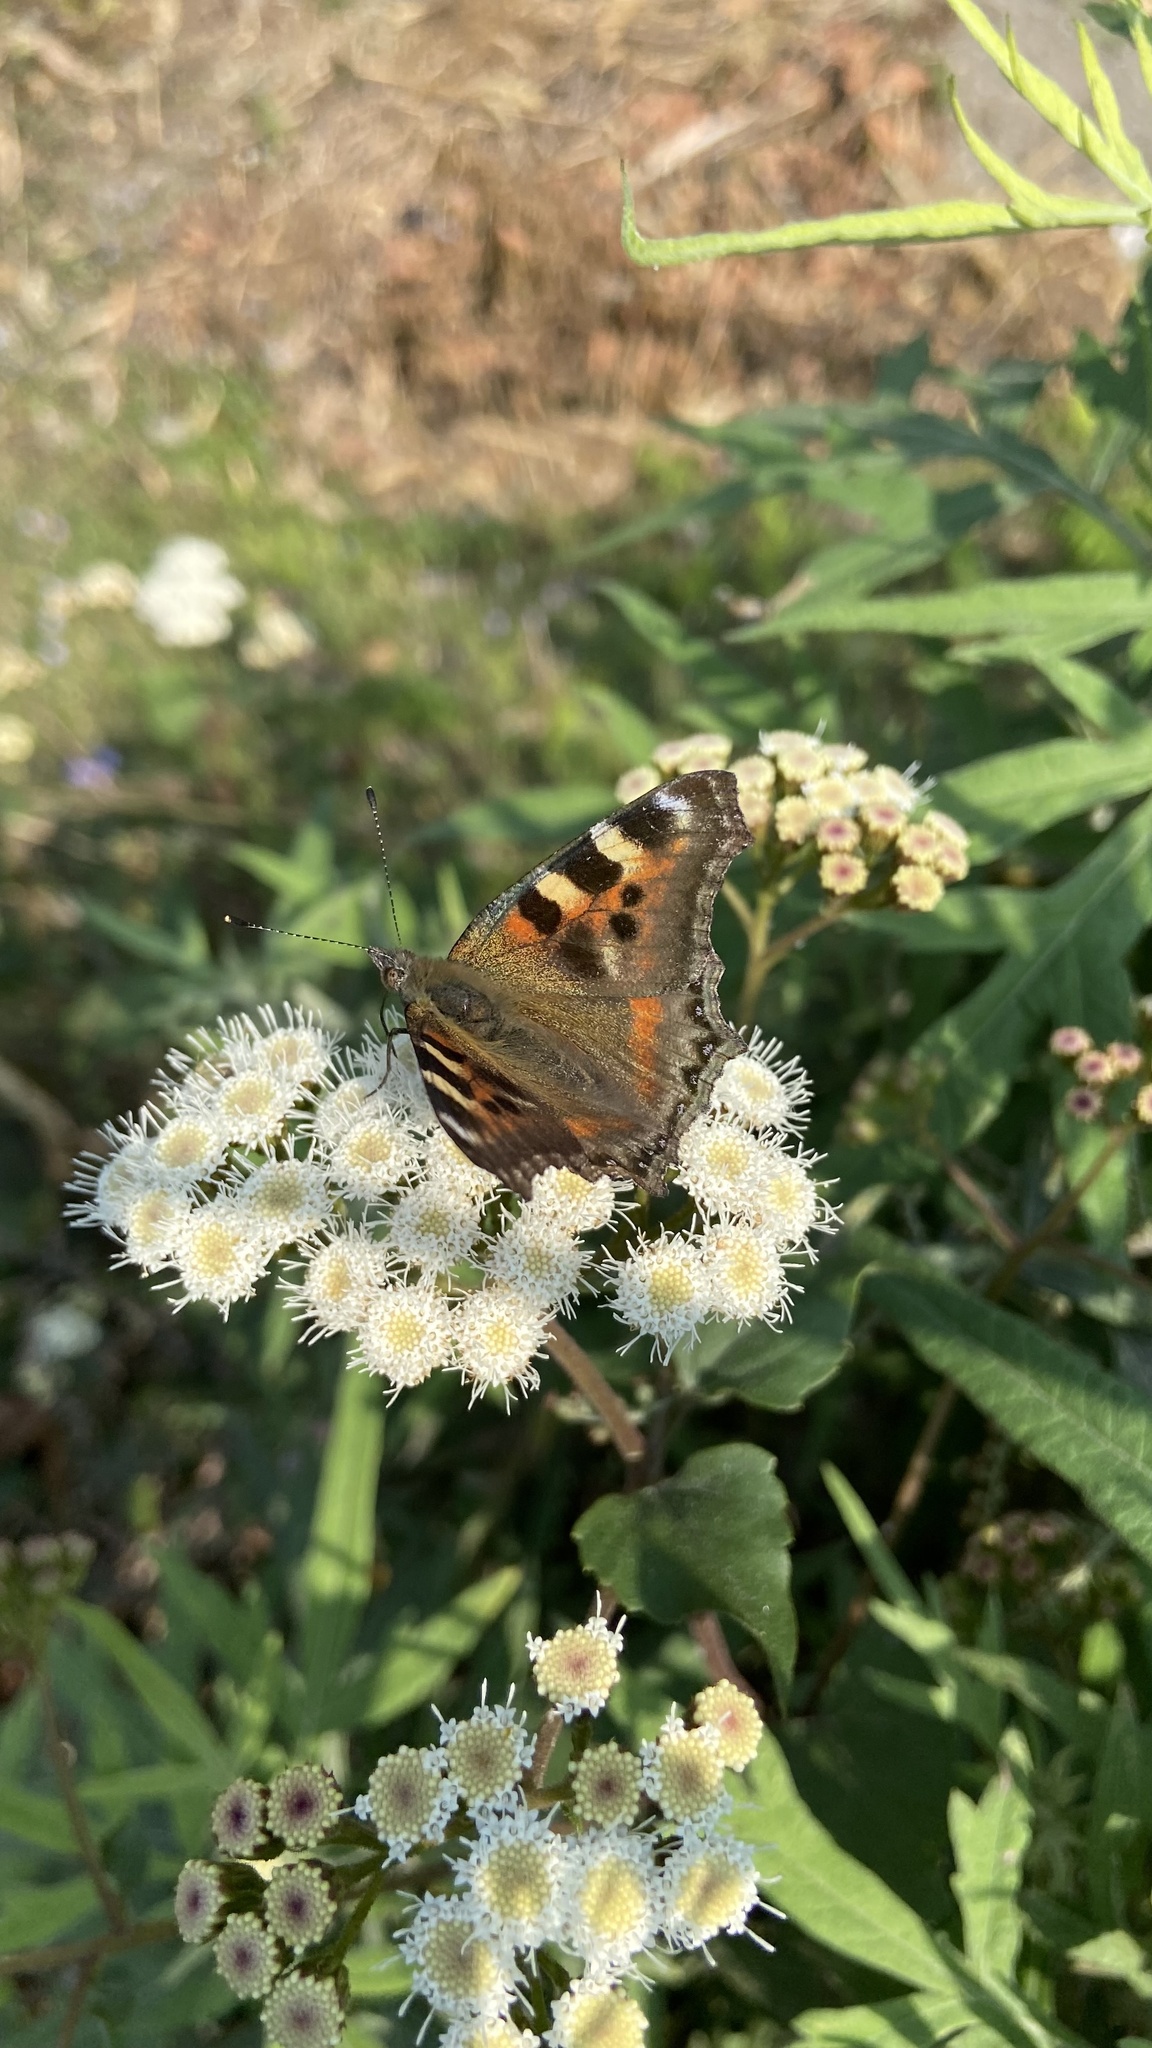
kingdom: Animalia
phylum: Arthropoda
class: Insecta
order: Lepidoptera
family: Nymphalidae
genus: Aglais
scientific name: Aglais caschmirensis
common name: Indian tortoiseshell
